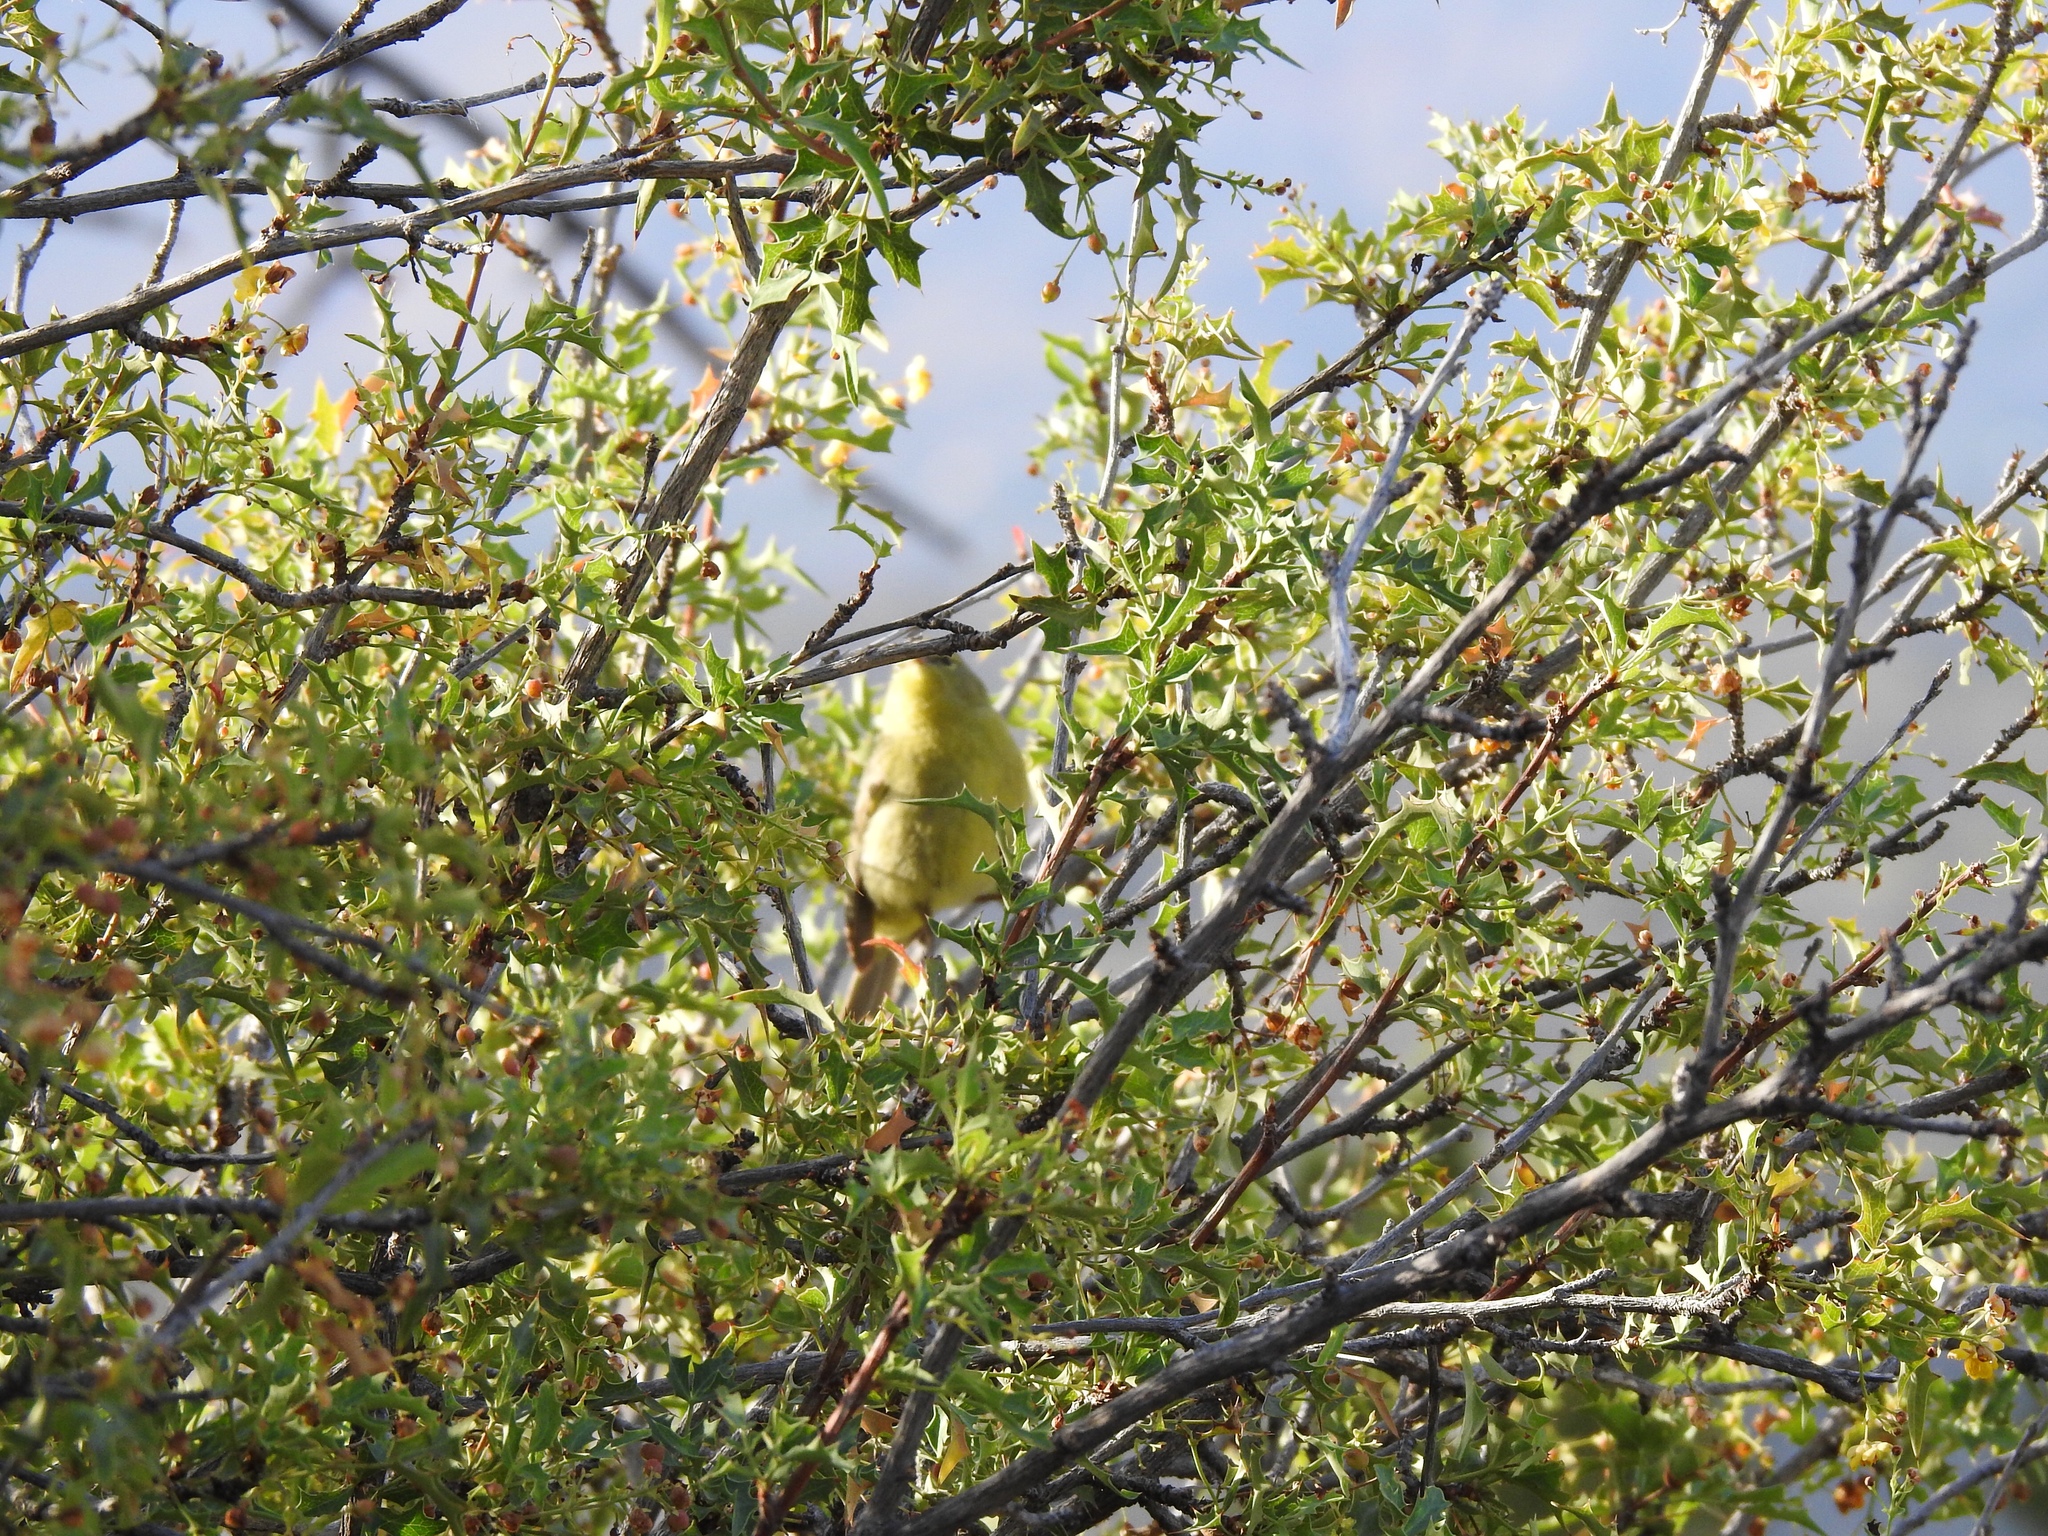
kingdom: Plantae
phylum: Tracheophyta
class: Magnoliopsida
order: Ranunculales
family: Berberidaceae
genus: Alloberberis
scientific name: Alloberberis haematocarpa
